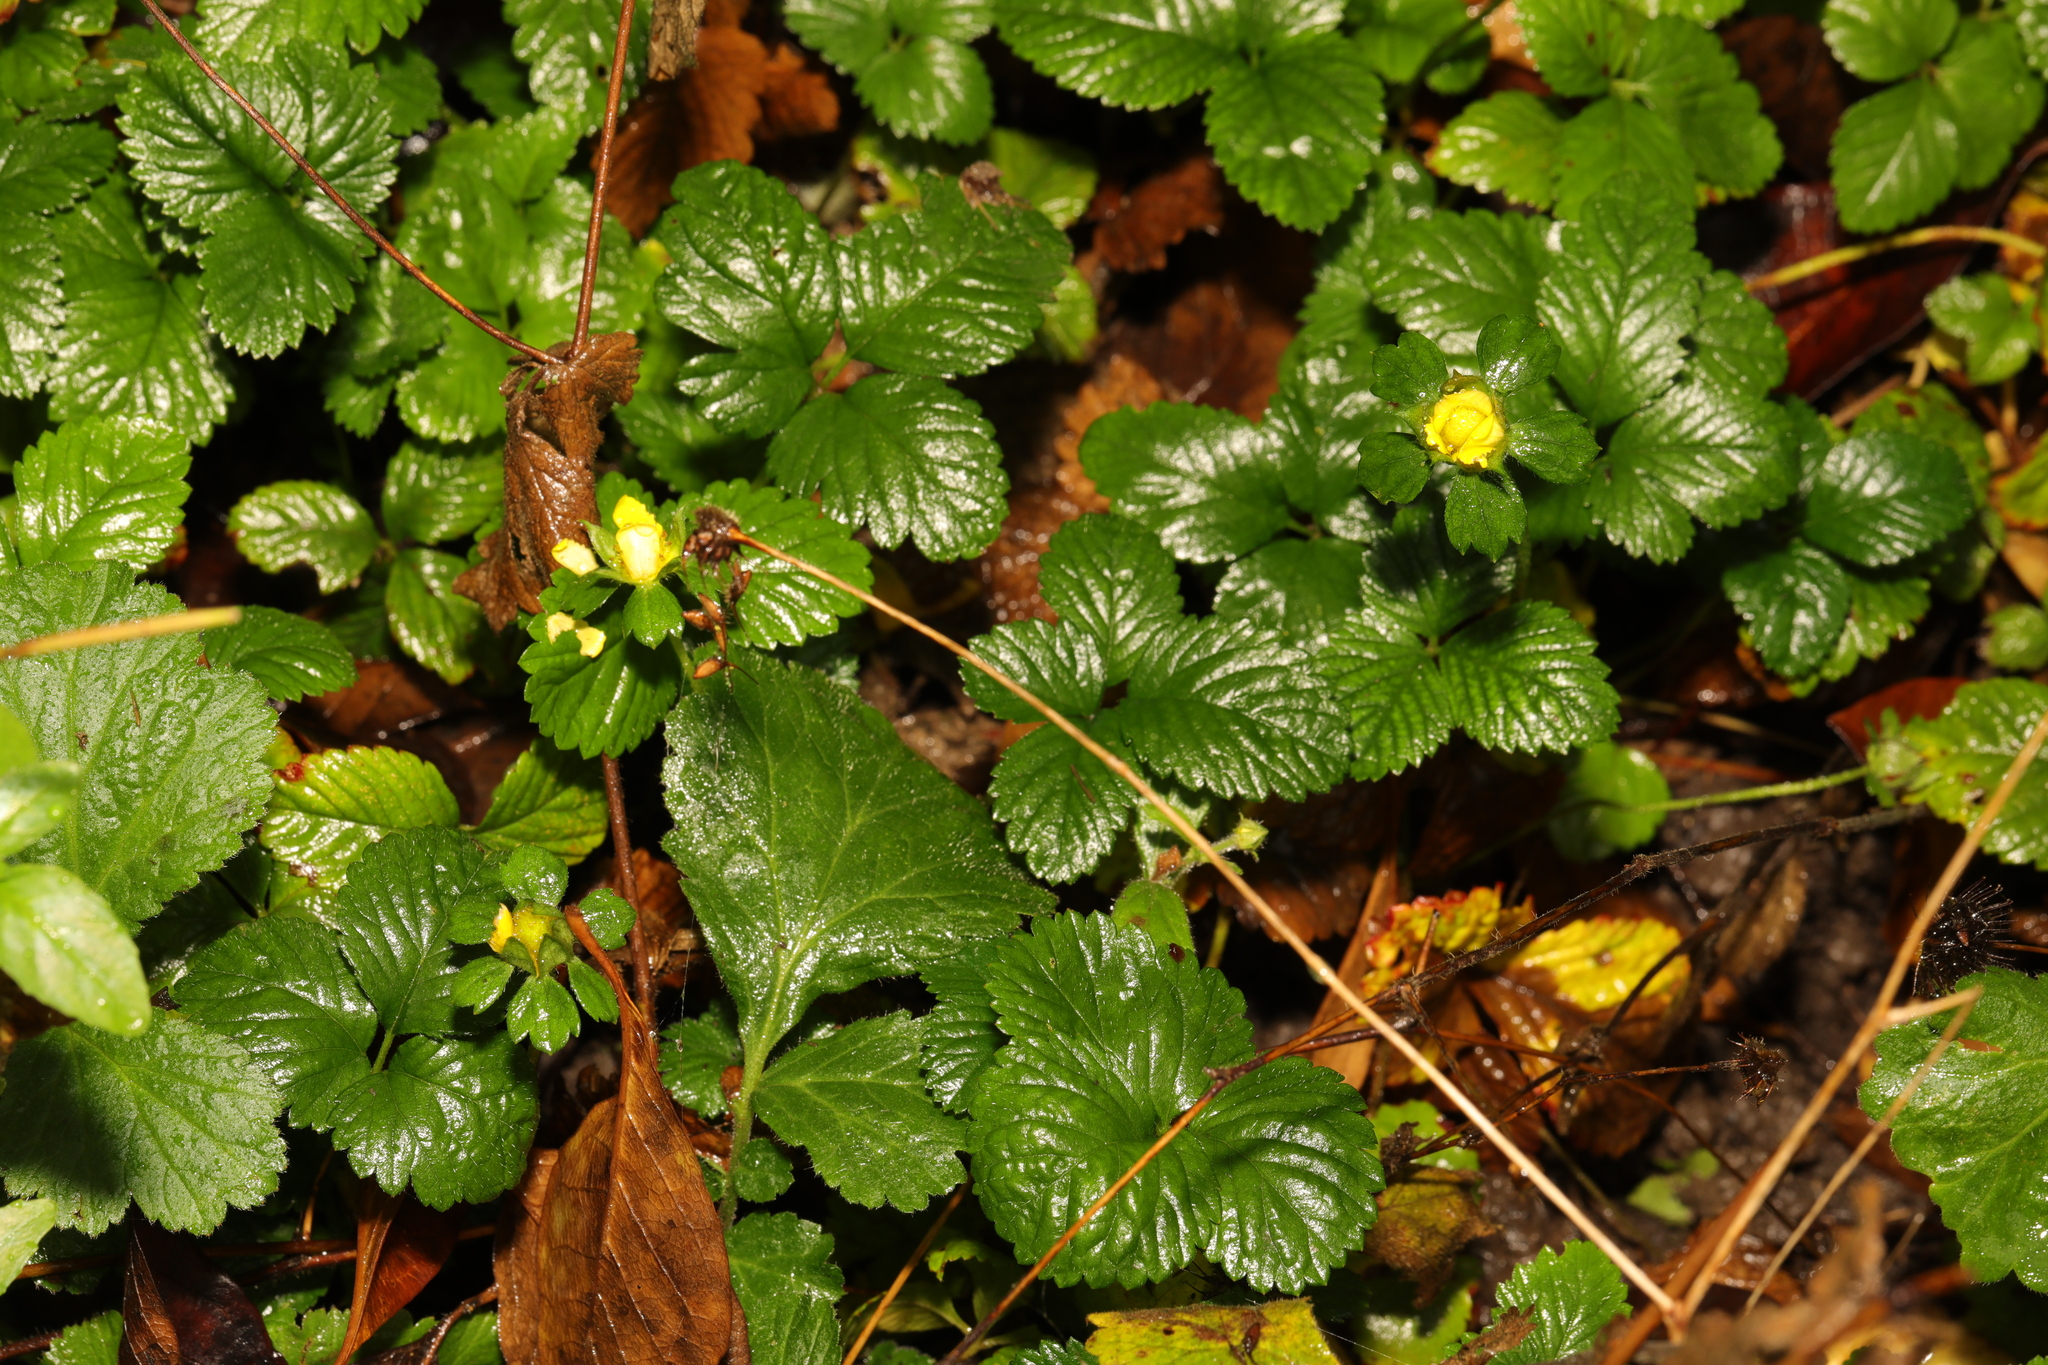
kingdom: Plantae
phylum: Tracheophyta
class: Magnoliopsida
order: Rosales
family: Rosaceae
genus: Potentilla
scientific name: Potentilla indica
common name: Yellow-flowered strawberry
